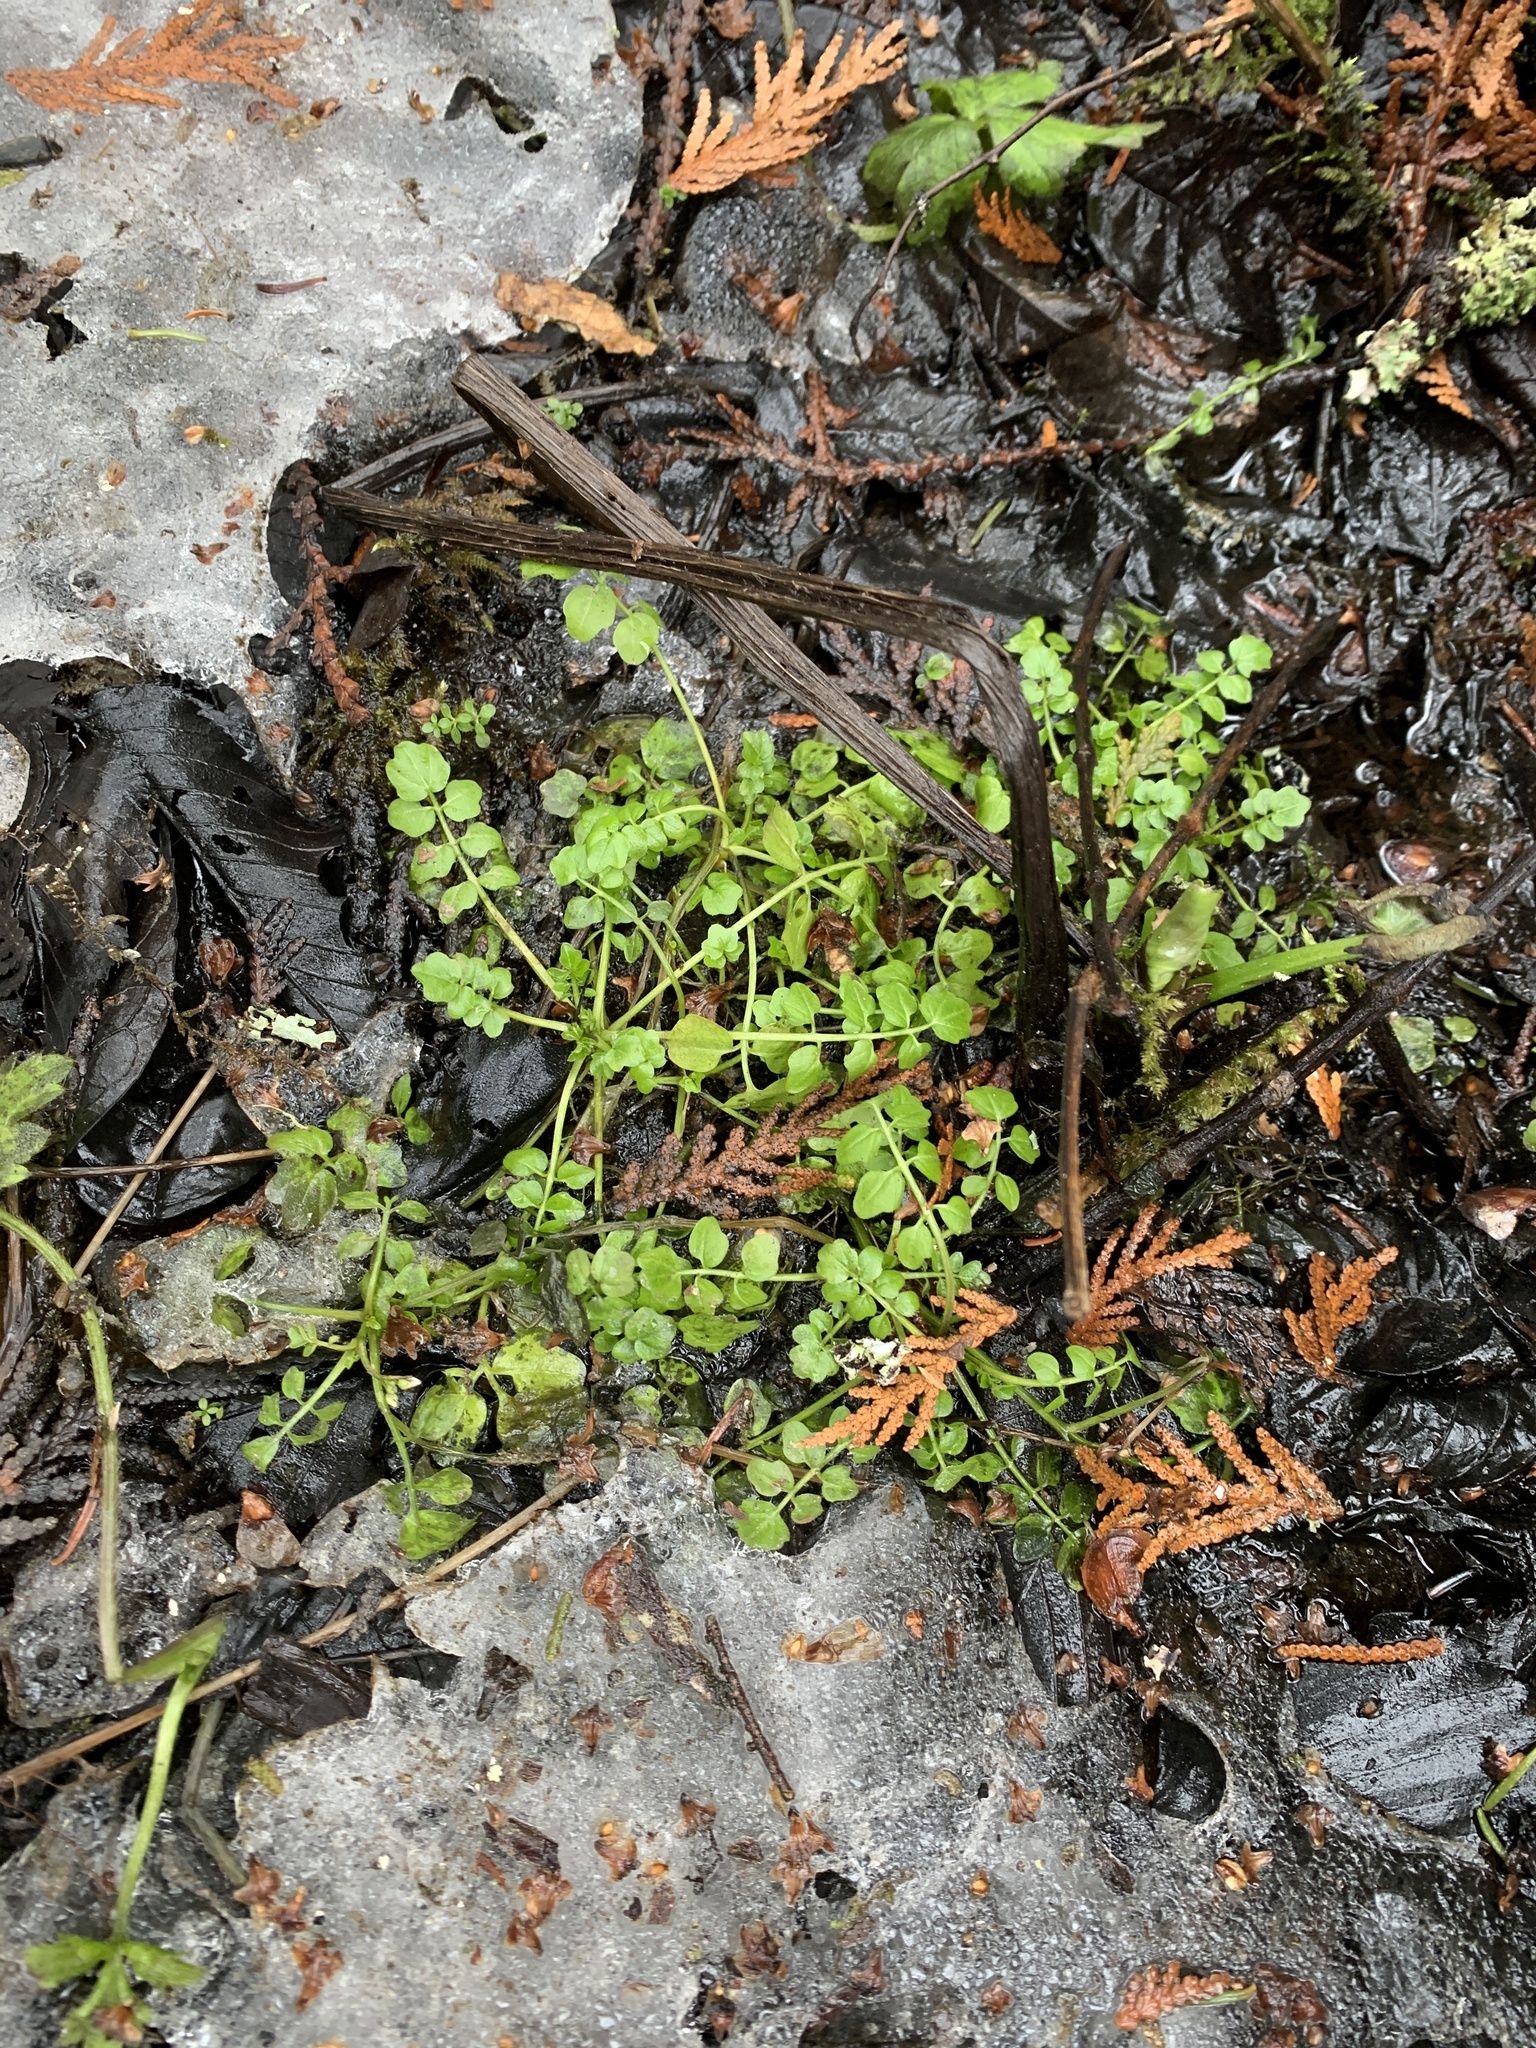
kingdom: Plantae
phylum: Tracheophyta
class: Magnoliopsida
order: Brassicales
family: Brassicaceae
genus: Cardamine
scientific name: Cardamine pensylvanica
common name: Pennsylvania bittercress
